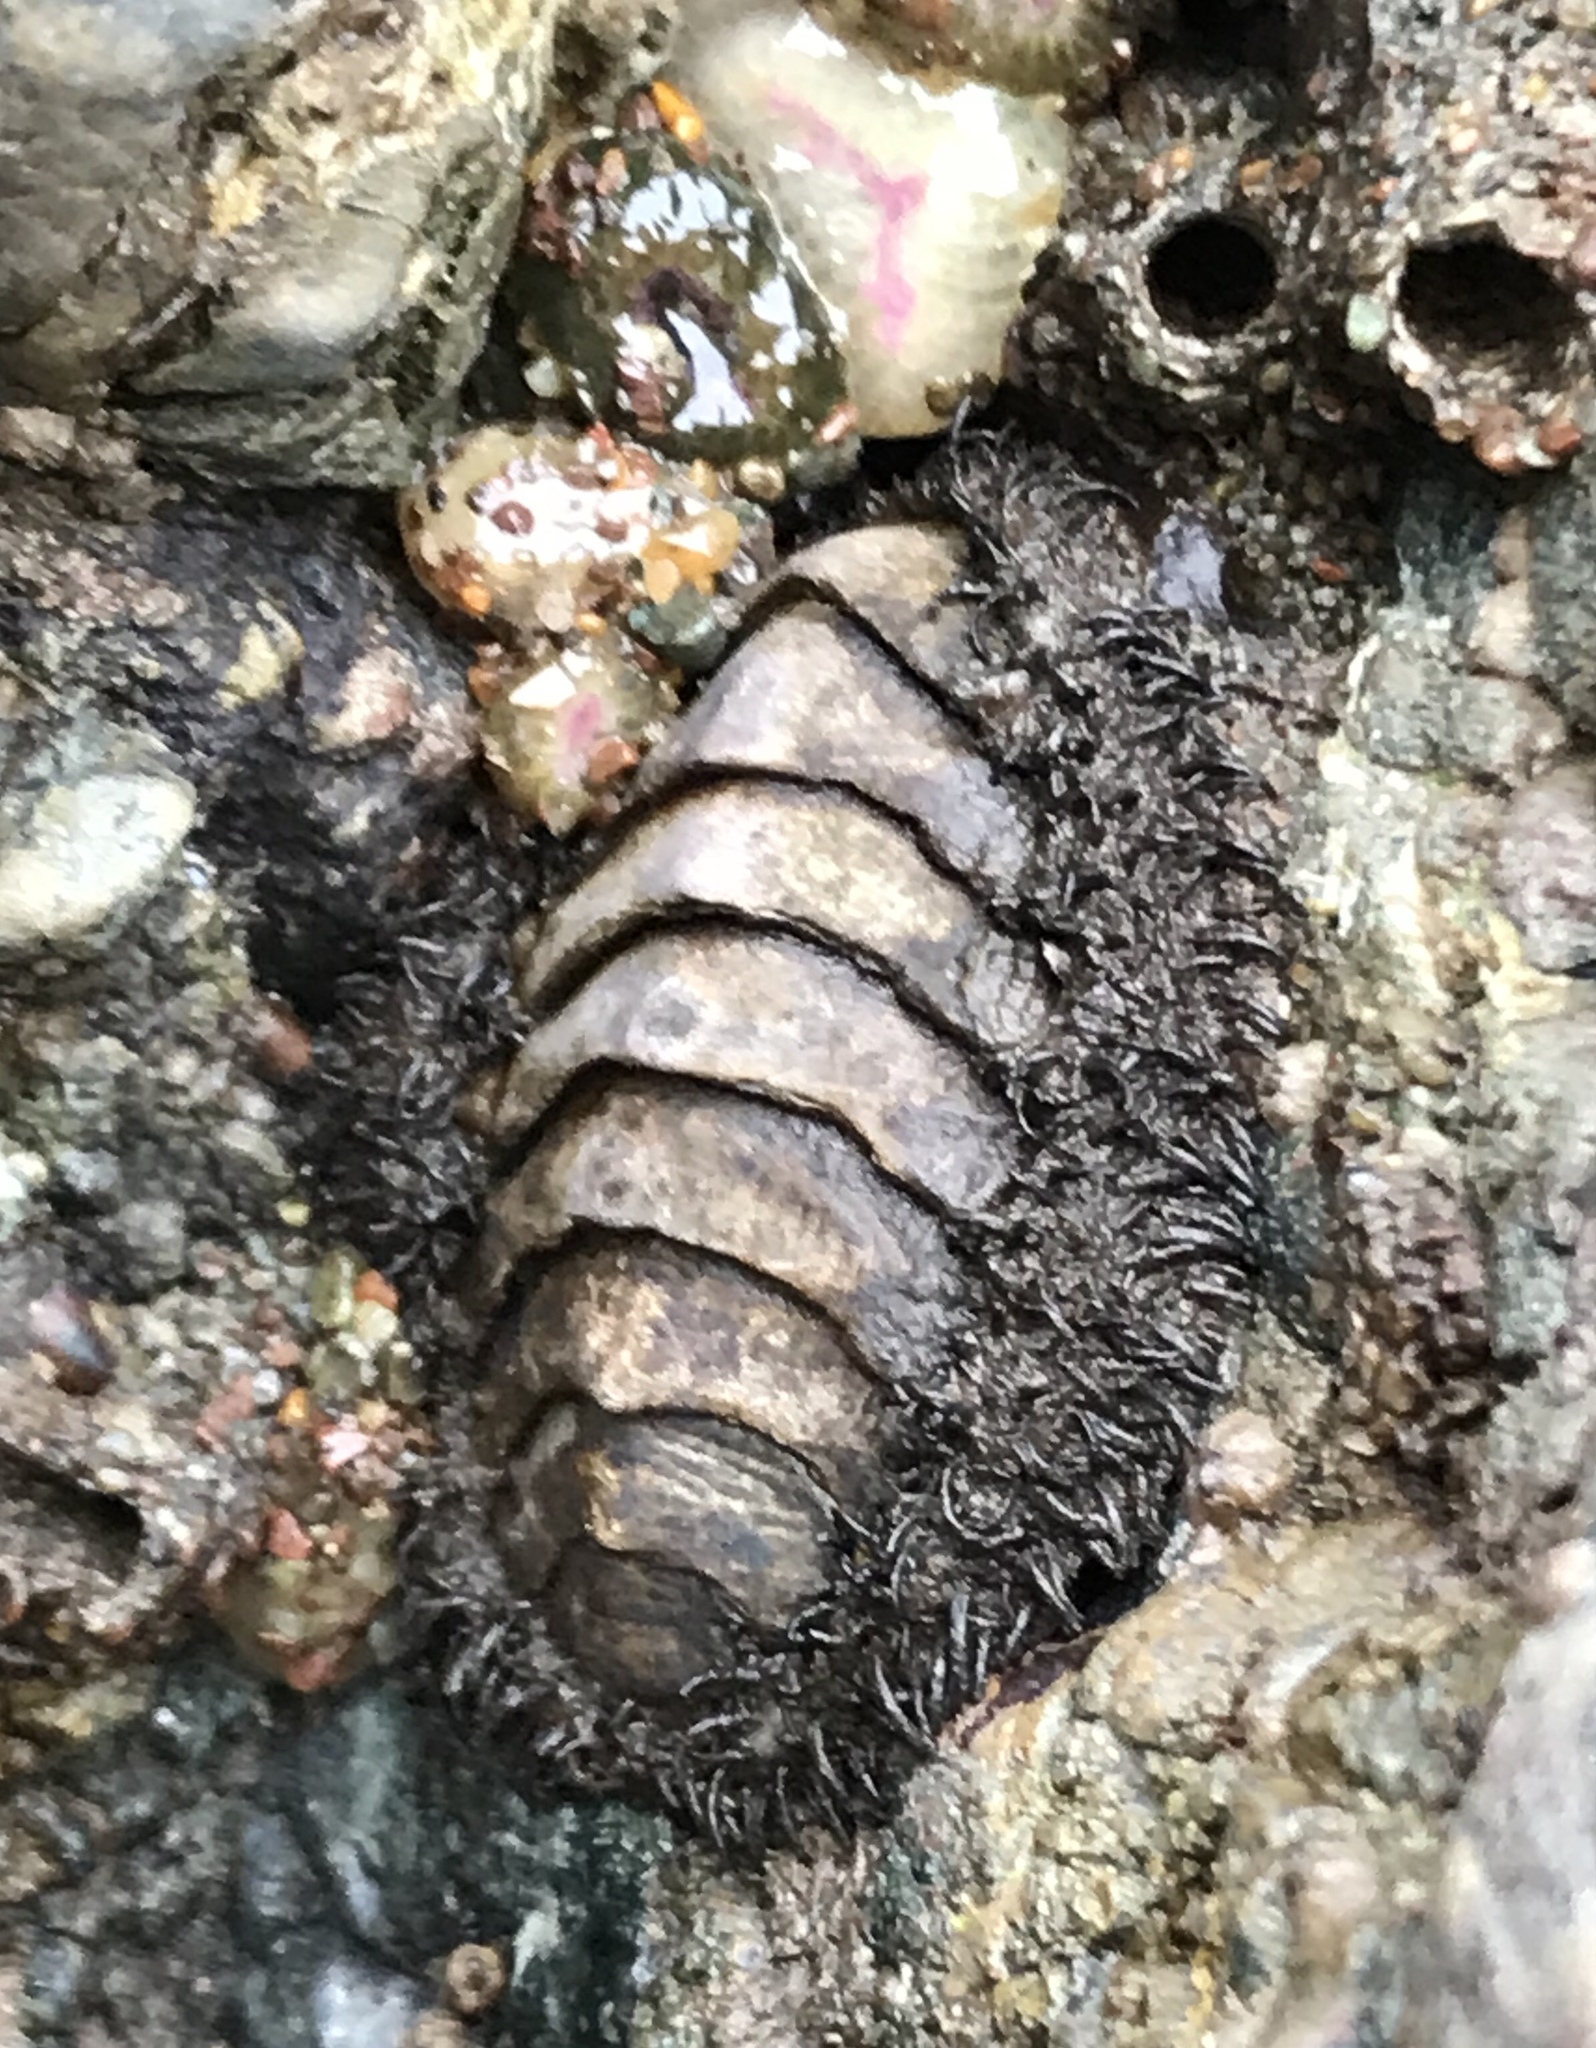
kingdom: Animalia
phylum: Mollusca
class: Polyplacophora
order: Chitonida
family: Mopaliidae
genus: Mopalia
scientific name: Mopalia muscosa
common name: Mossy chiton
